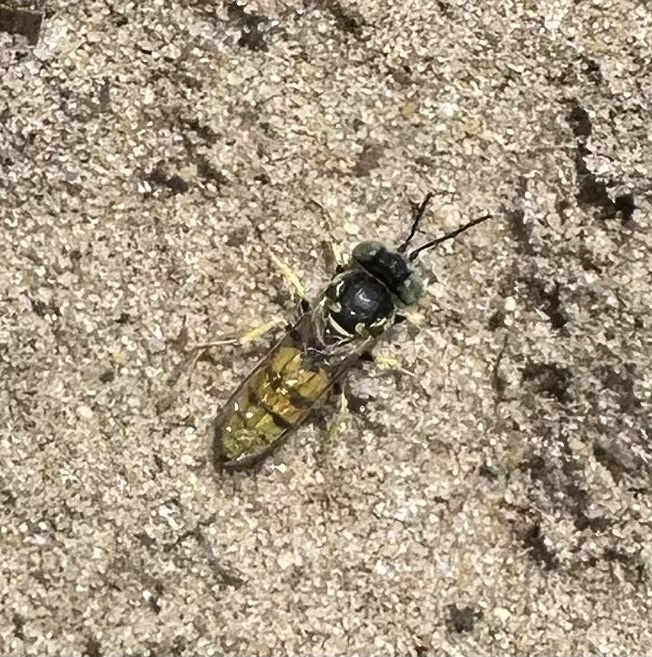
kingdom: Animalia
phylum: Arthropoda
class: Insecta
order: Hymenoptera
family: Crabronidae
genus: Microbembex
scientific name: Microbembex monodonta
